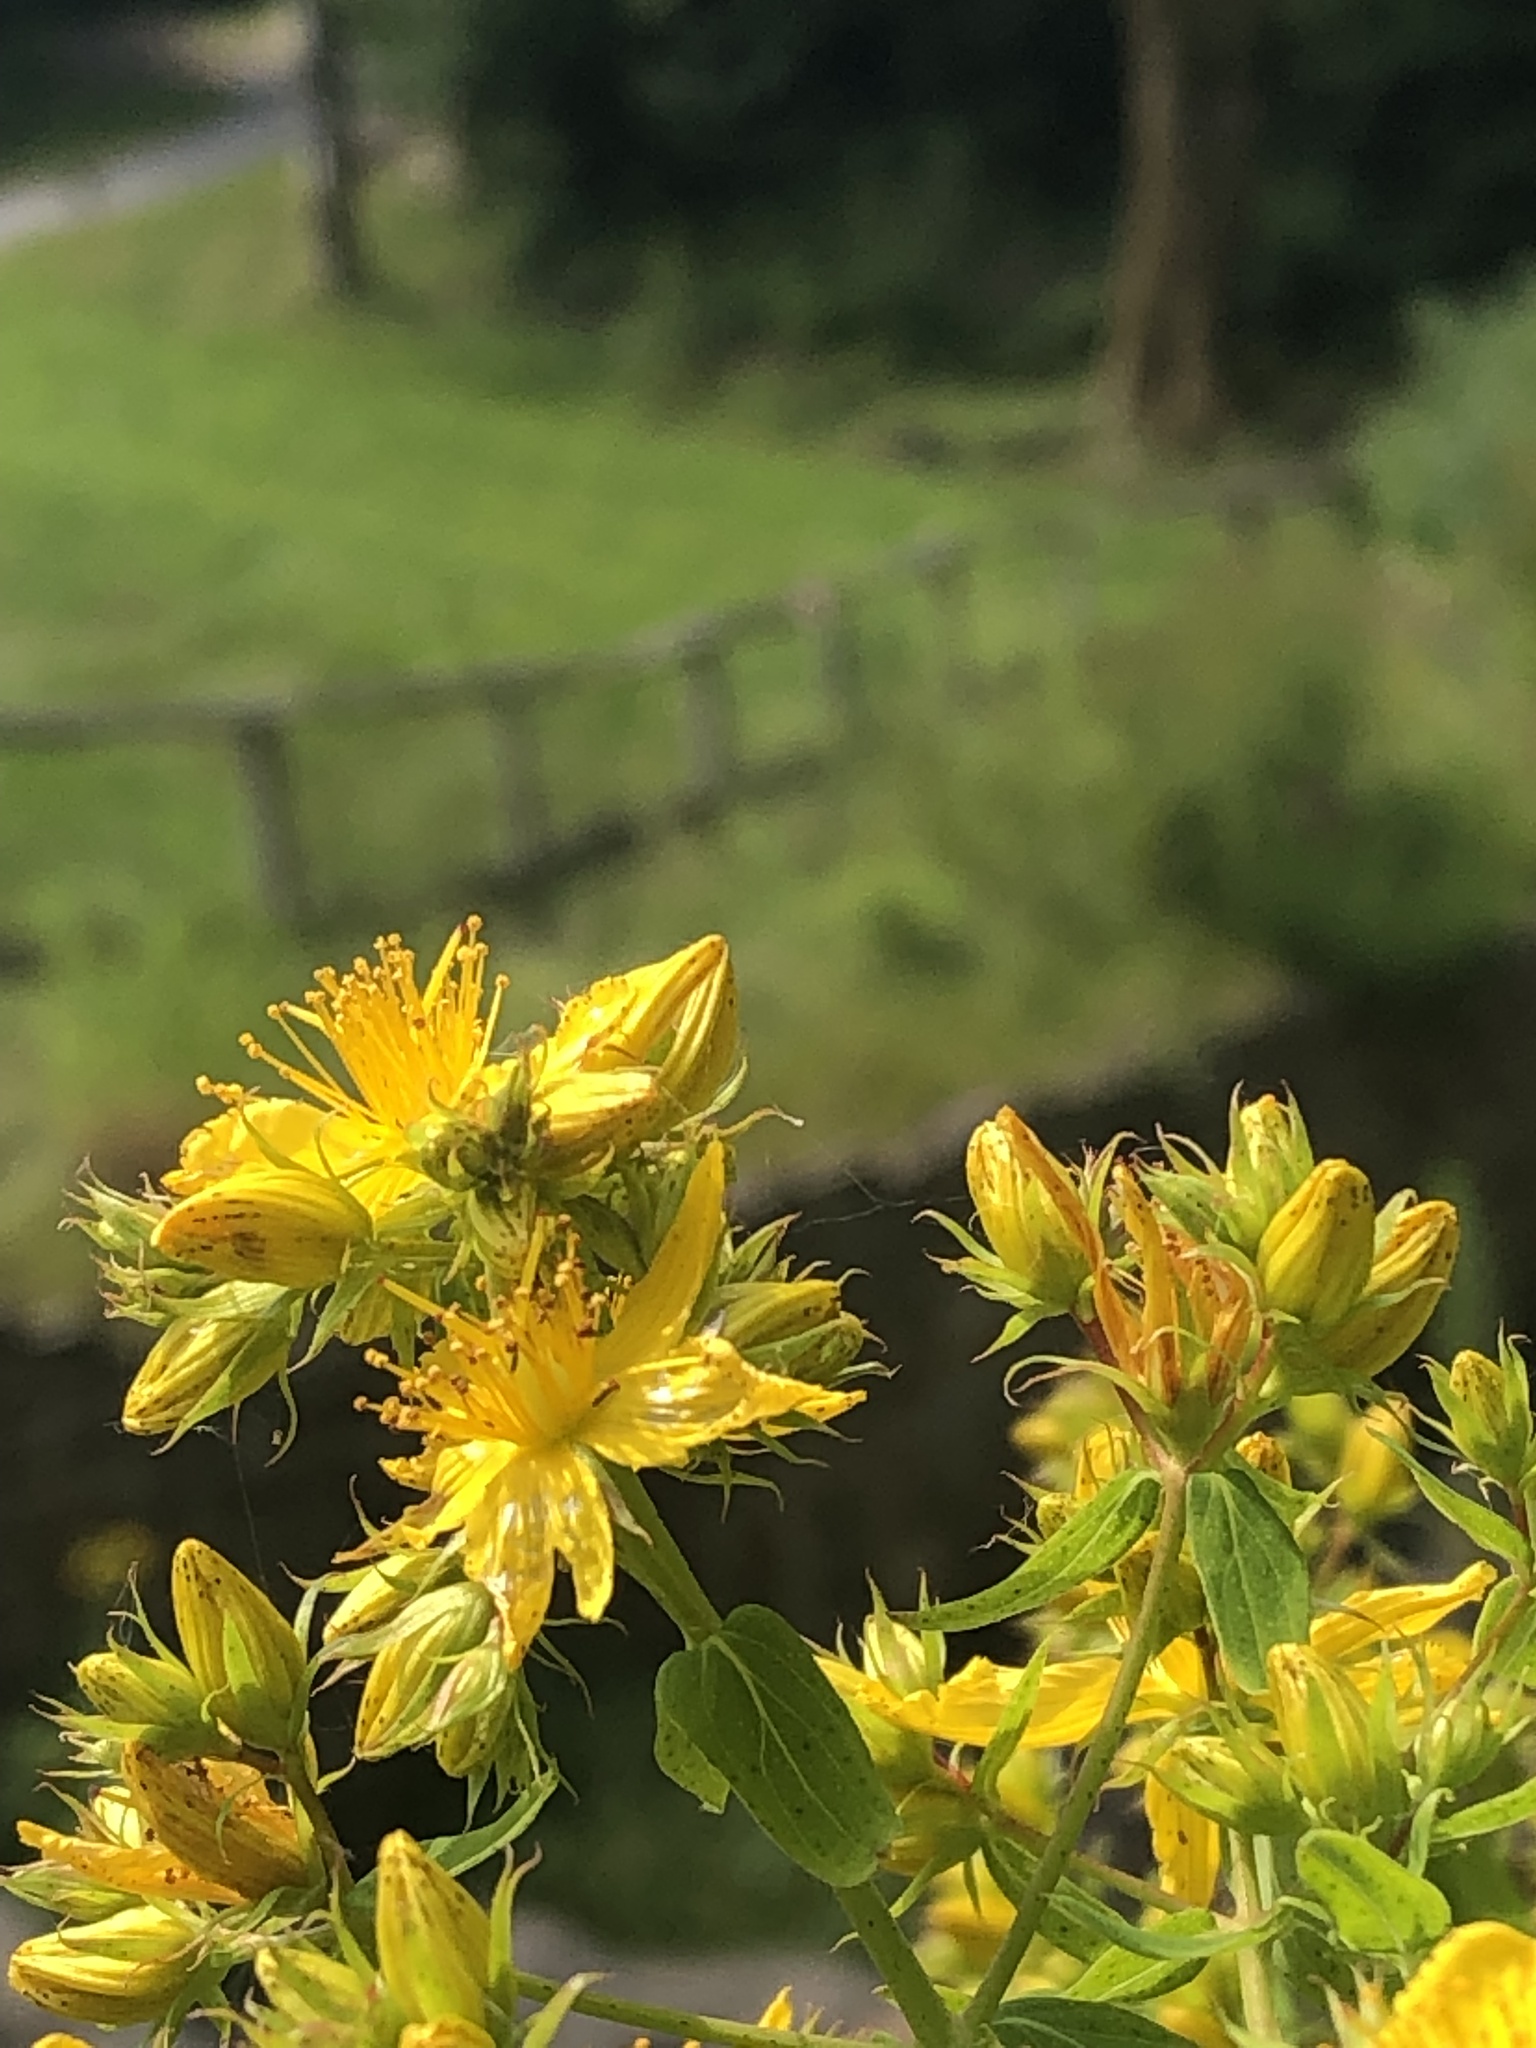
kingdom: Plantae
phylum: Tracheophyta
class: Magnoliopsida
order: Malpighiales
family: Hypericaceae
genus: Hypericum
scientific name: Hypericum perforatum
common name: Common st. johnswort
